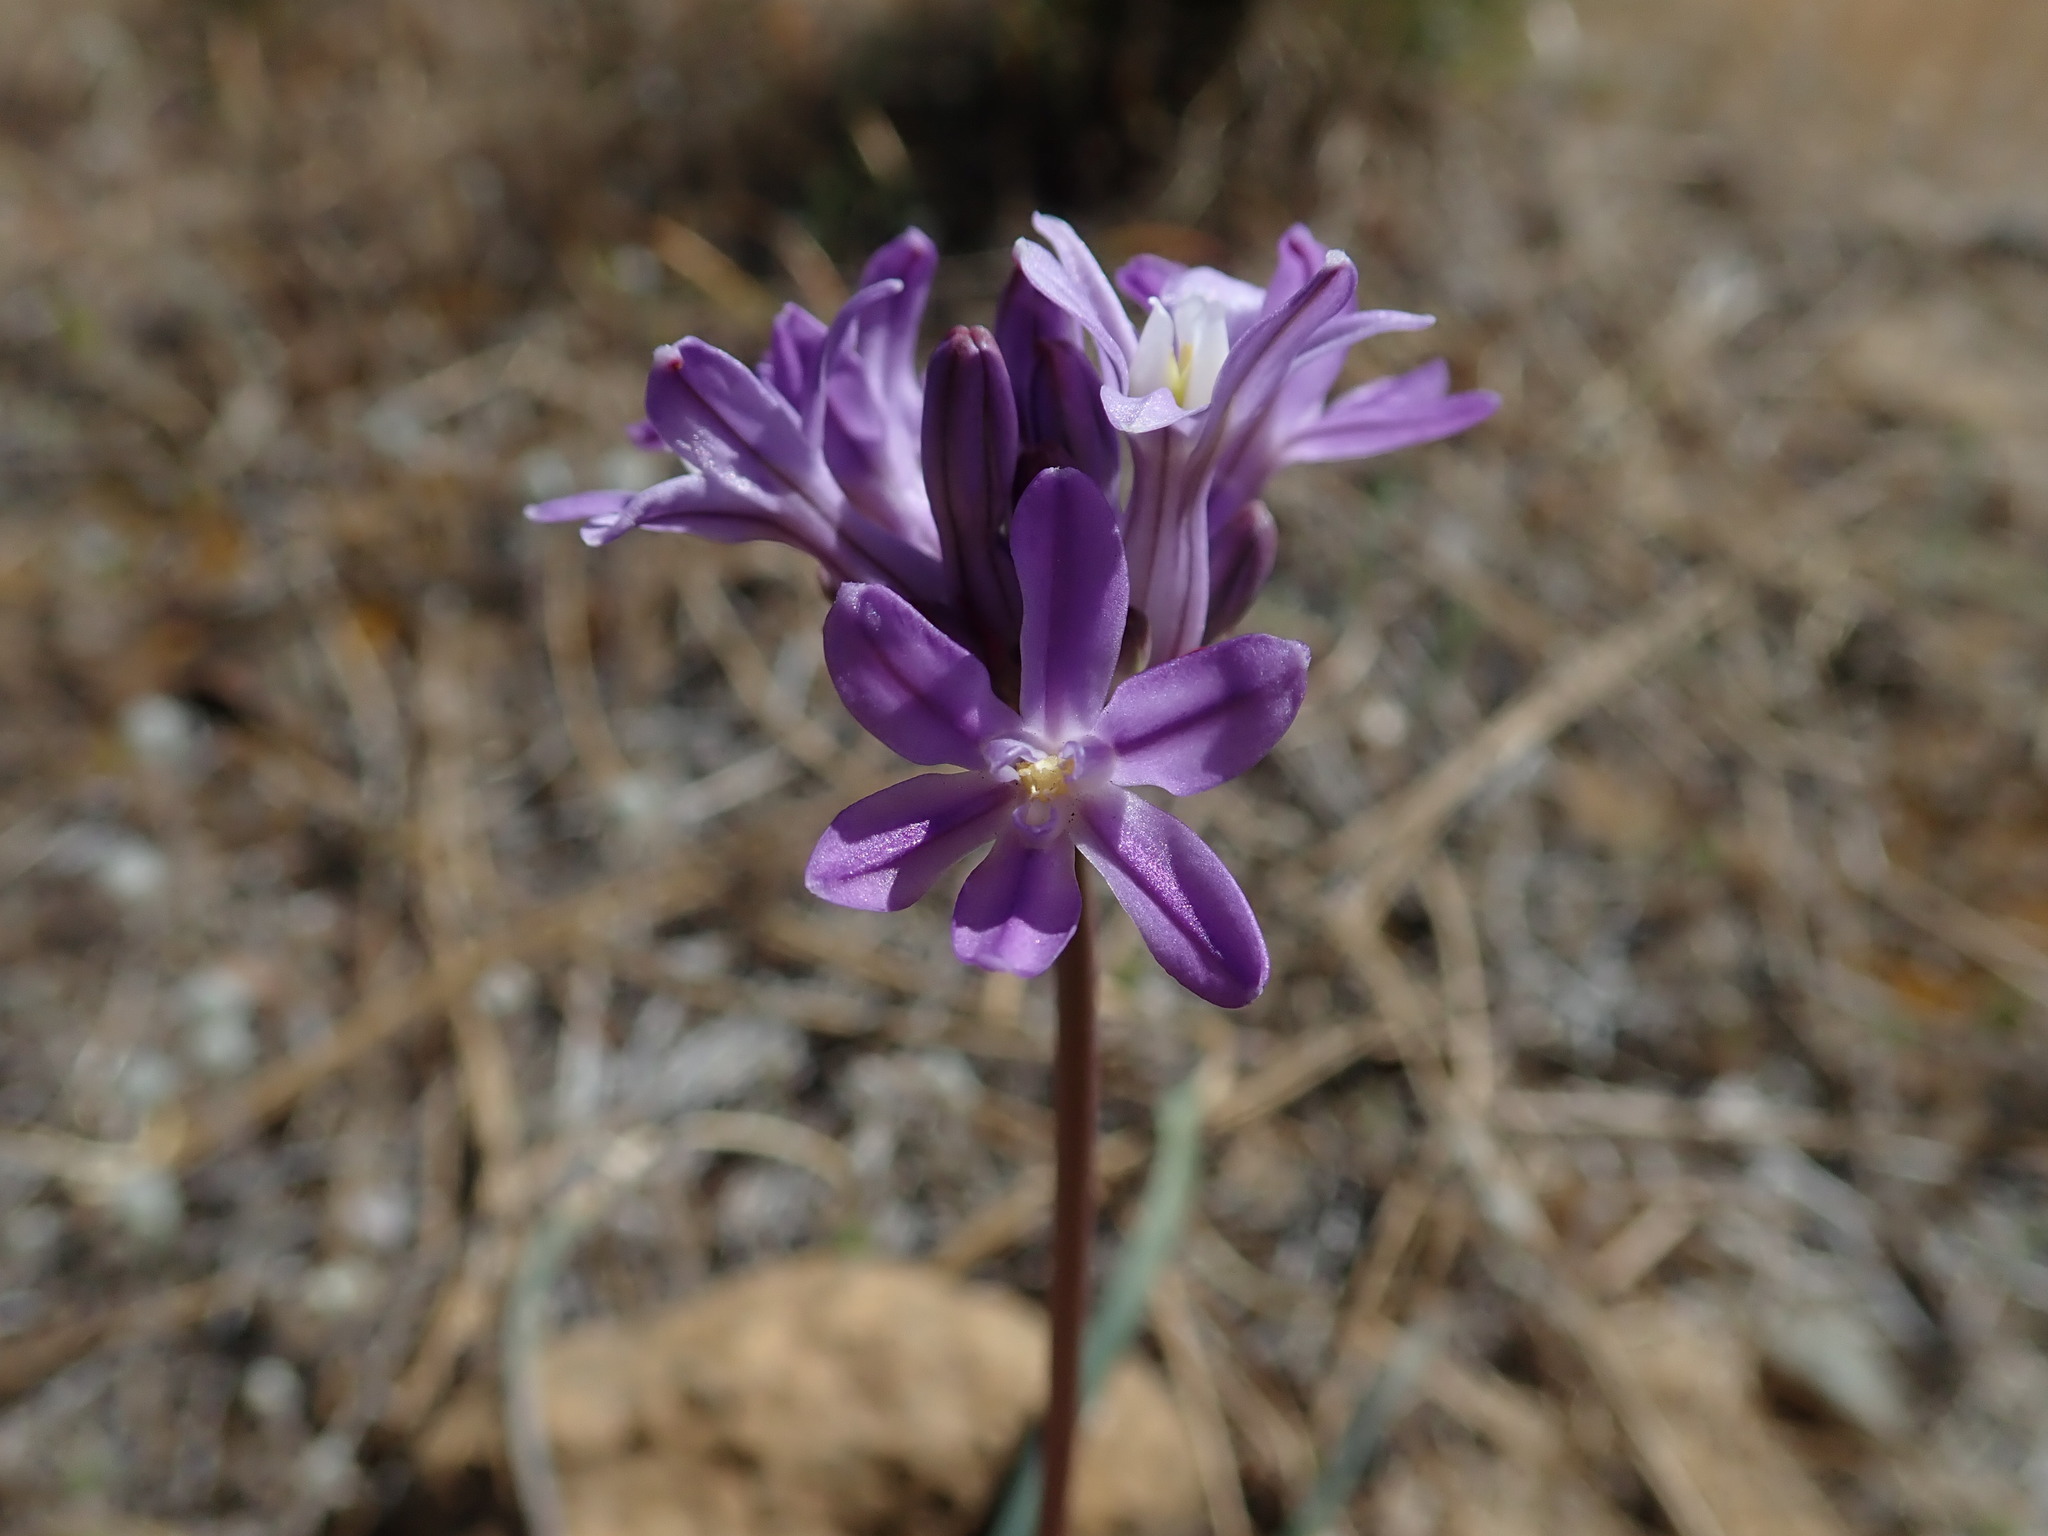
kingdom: Plantae
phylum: Tracheophyta
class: Liliopsida
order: Asparagales
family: Asparagaceae
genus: Dichelostemma
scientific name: Dichelostemma multiflorum
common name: Round-tooth ookow
